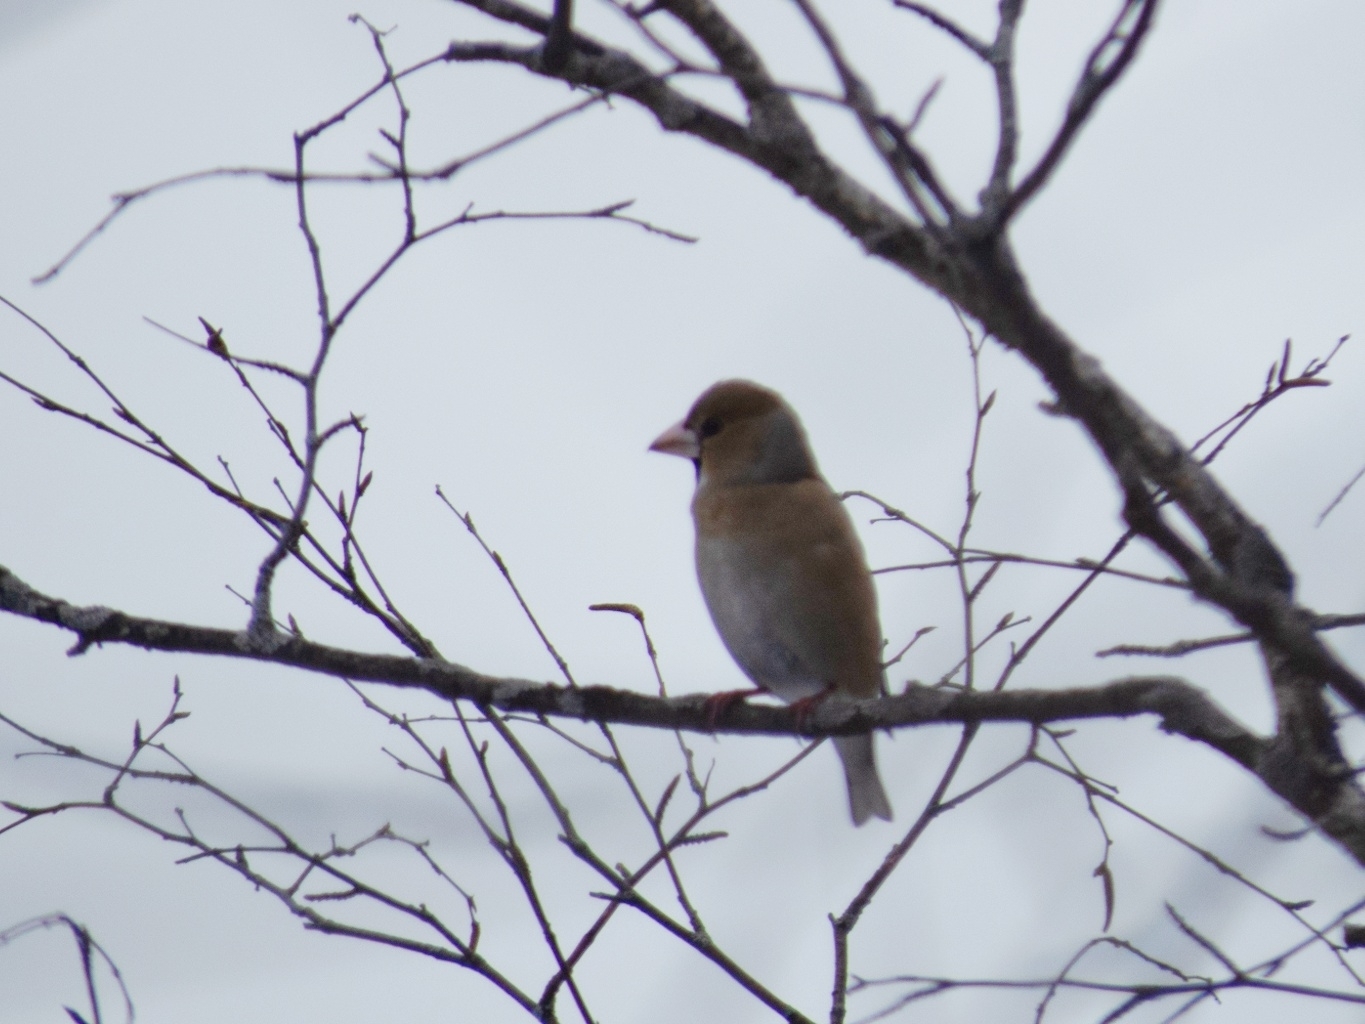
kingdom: Animalia
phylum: Chordata
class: Aves
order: Passeriformes
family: Fringillidae
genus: Coccothraustes
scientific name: Coccothraustes coccothraustes
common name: Hawfinch
